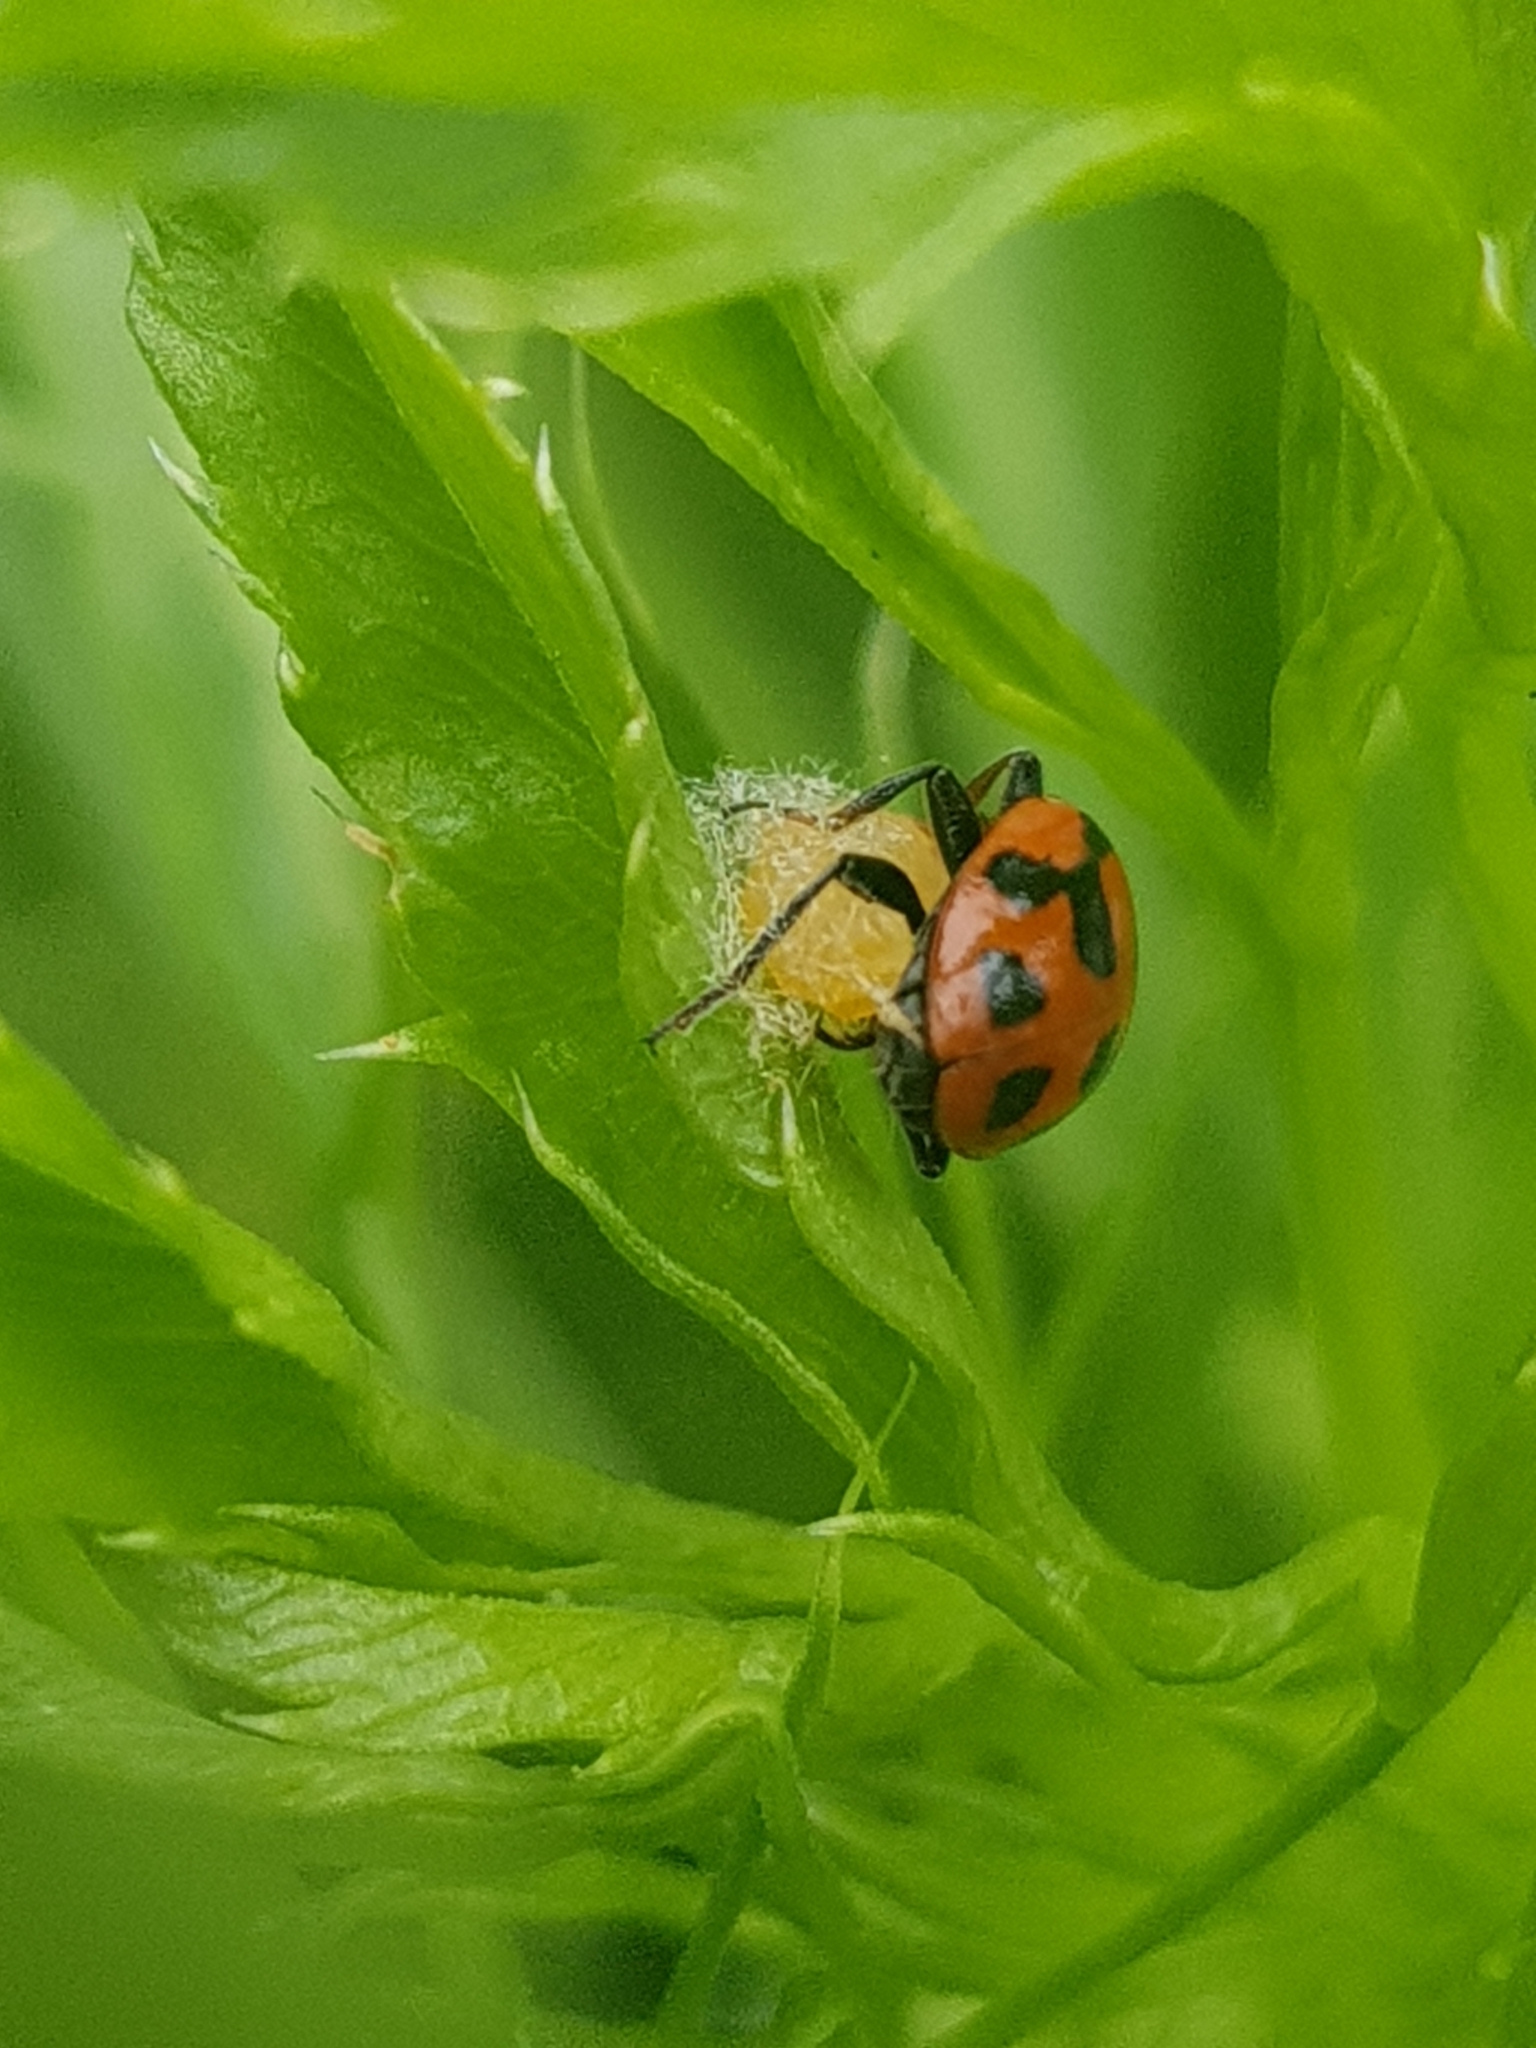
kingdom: Viruses
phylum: Pisuviricota
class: Pisoniviricetes
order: Picornavirales
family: Iflaviridae
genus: Iflavirus
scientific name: Iflavirus dinococcinellae
